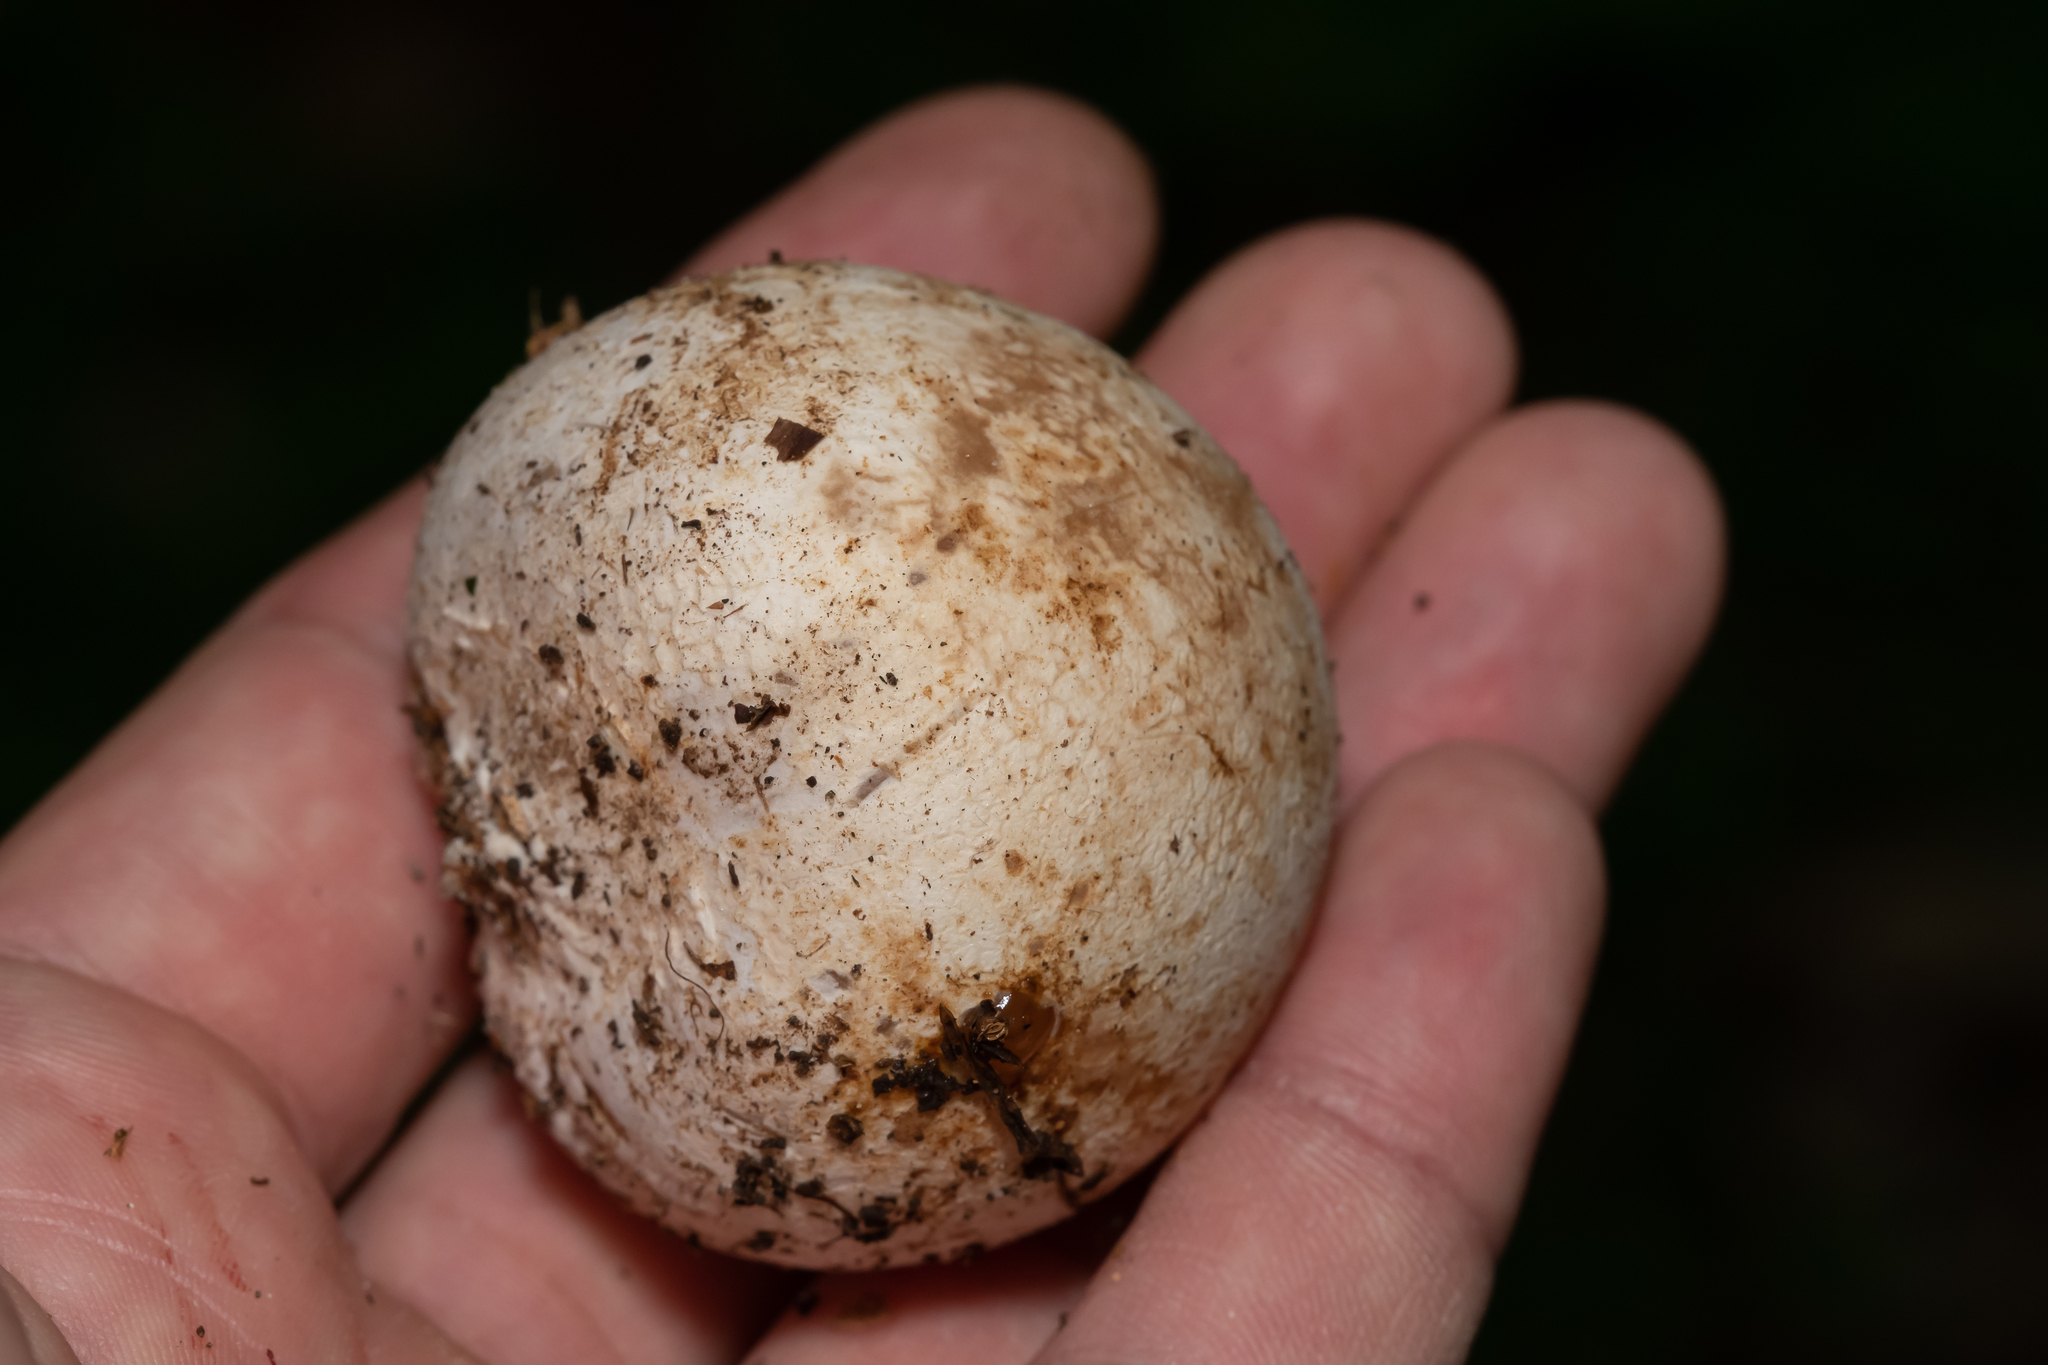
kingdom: Fungi
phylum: Basidiomycota
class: Agaricomycetes
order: Phallales
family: Phallaceae
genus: Phallus
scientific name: Phallus impudicus
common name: Common stinkhorn
